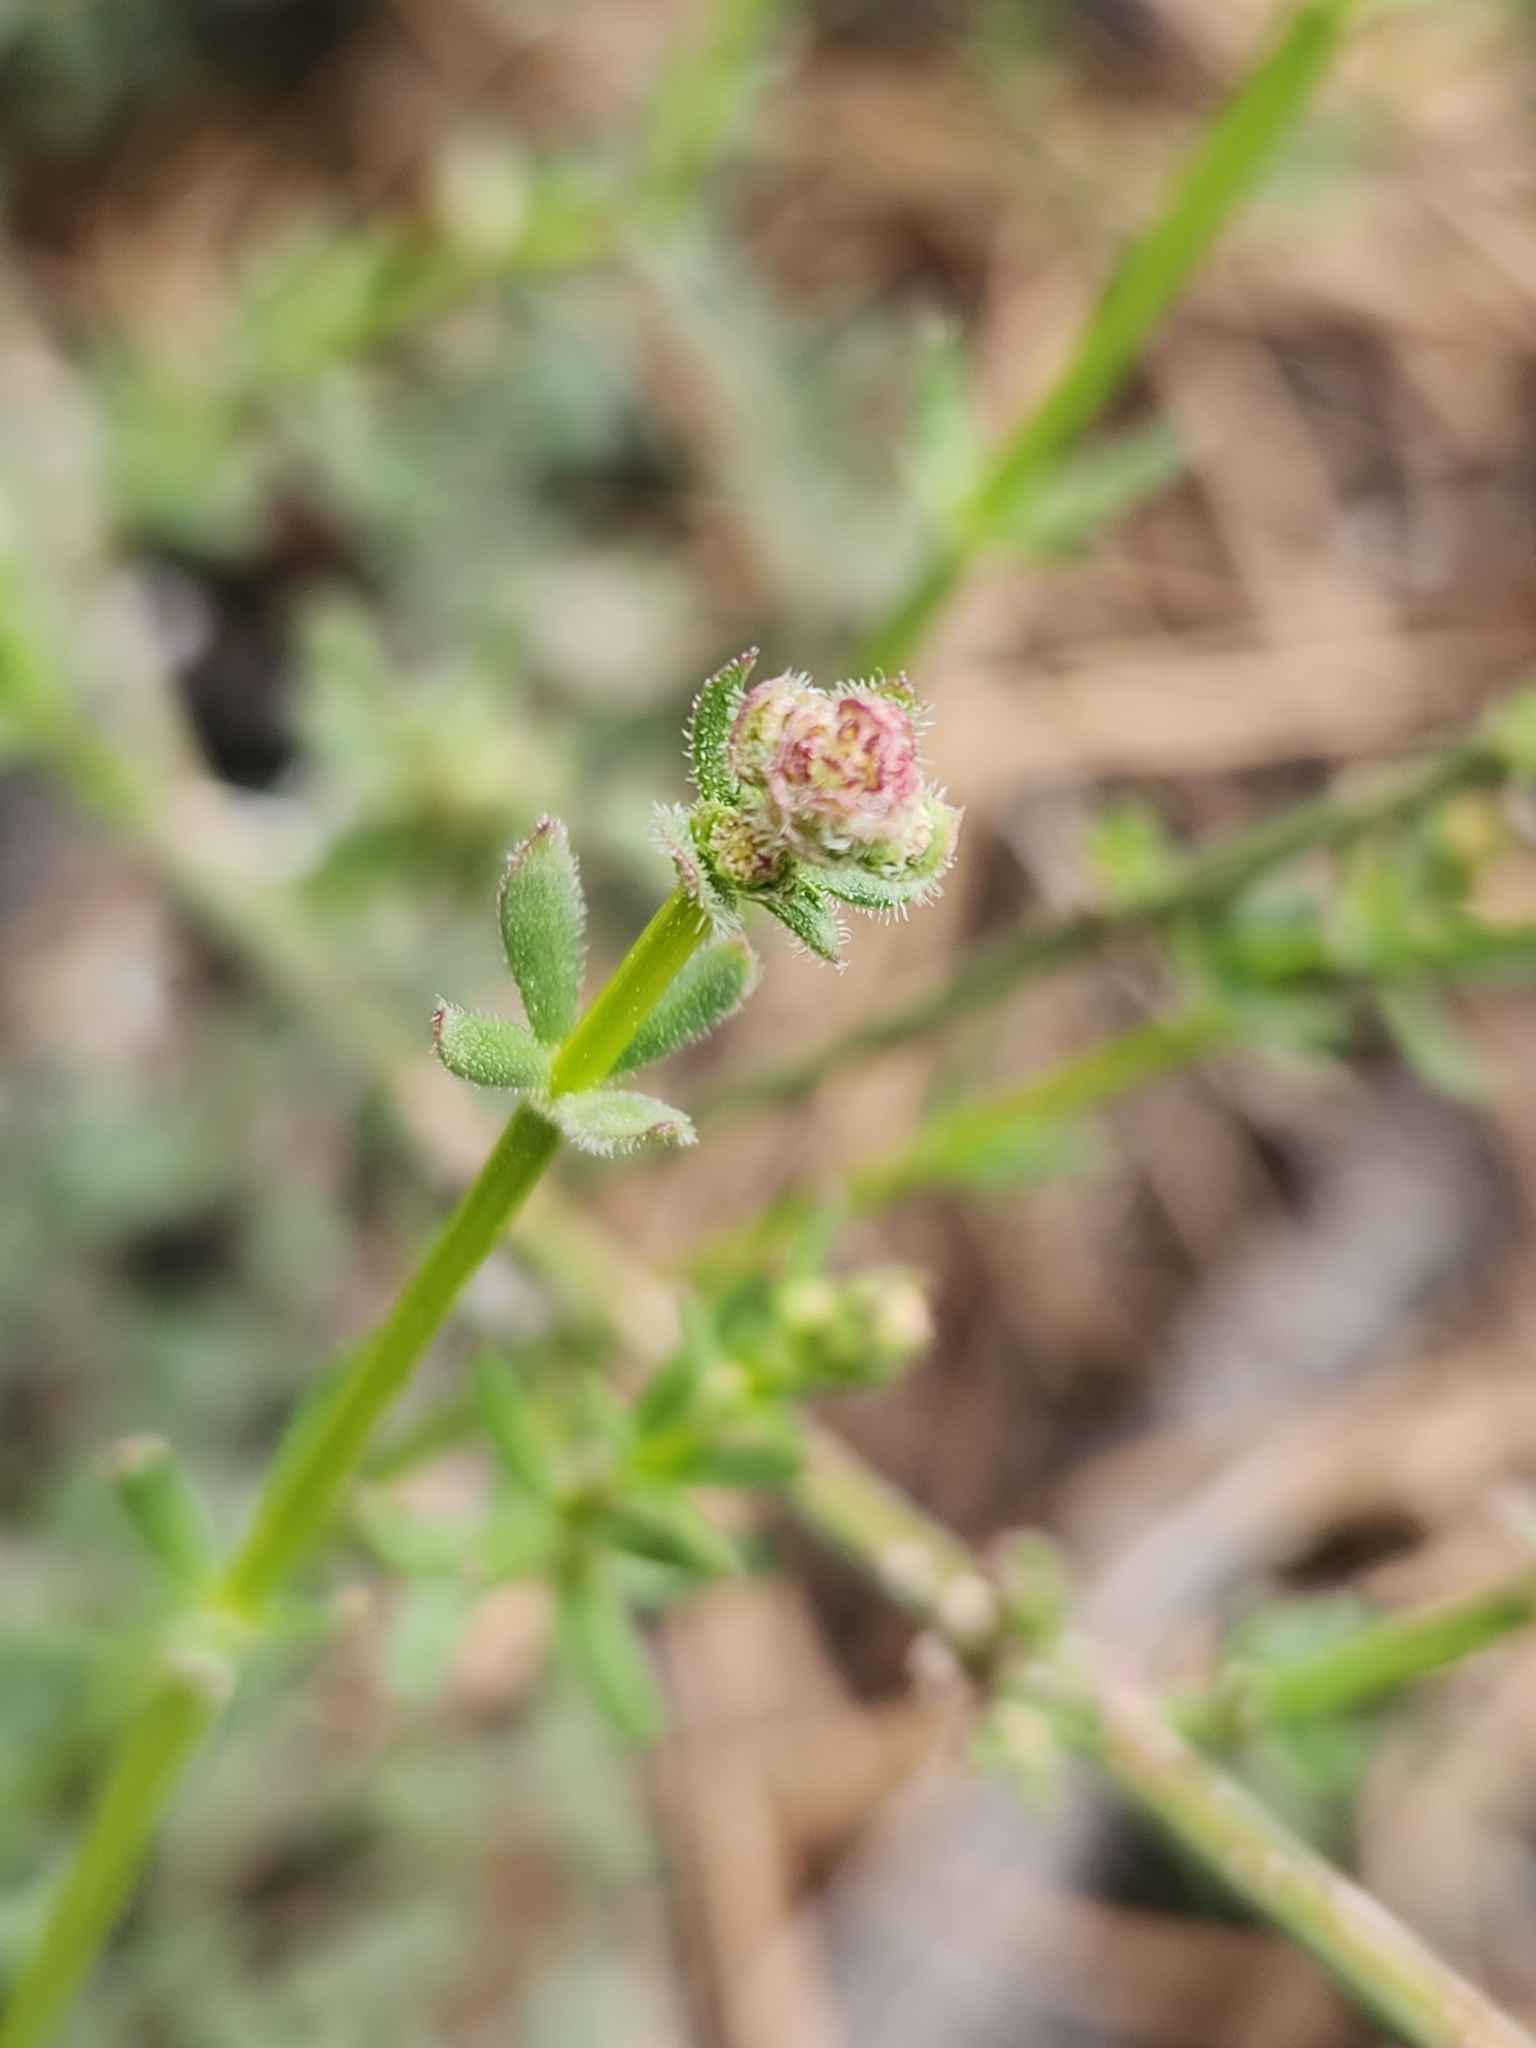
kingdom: Plantae
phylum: Tracheophyta
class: Magnoliopsida
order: Gentianales
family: Rubiaceae
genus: Galium
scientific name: Galium angustifolium
